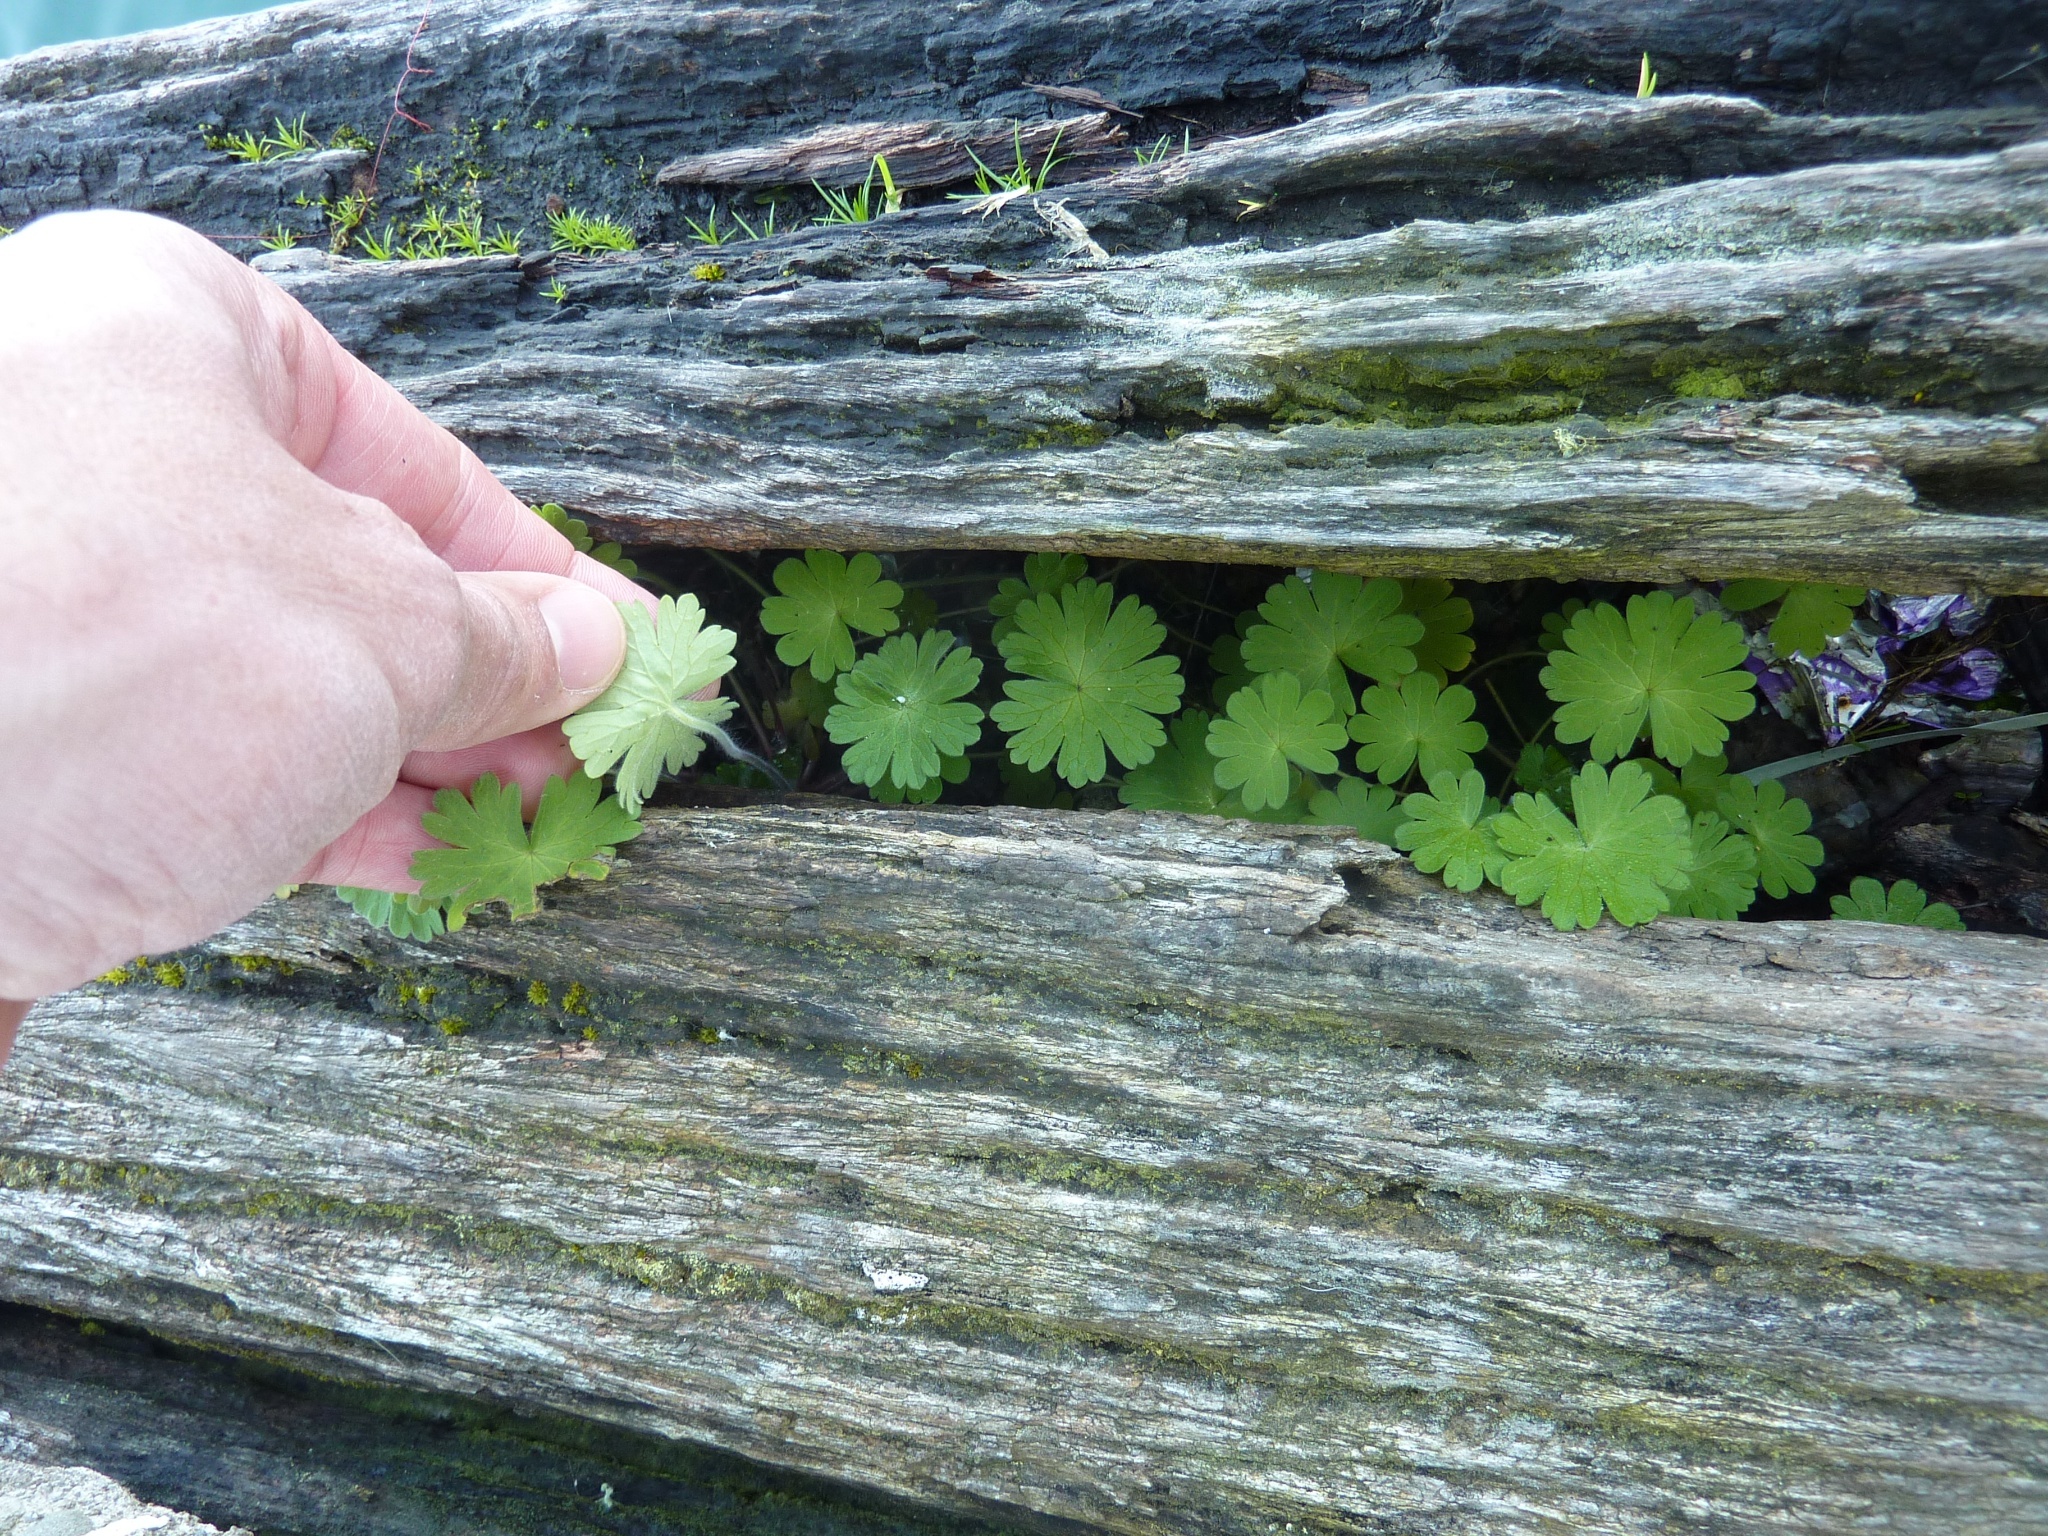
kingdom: Plantae
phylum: Tracheophyta
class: Magnoliopsida
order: Geraniales
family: Geraniaceae
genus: Geranium
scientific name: Geranium molle
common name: Dove's-foot crane's-bill
